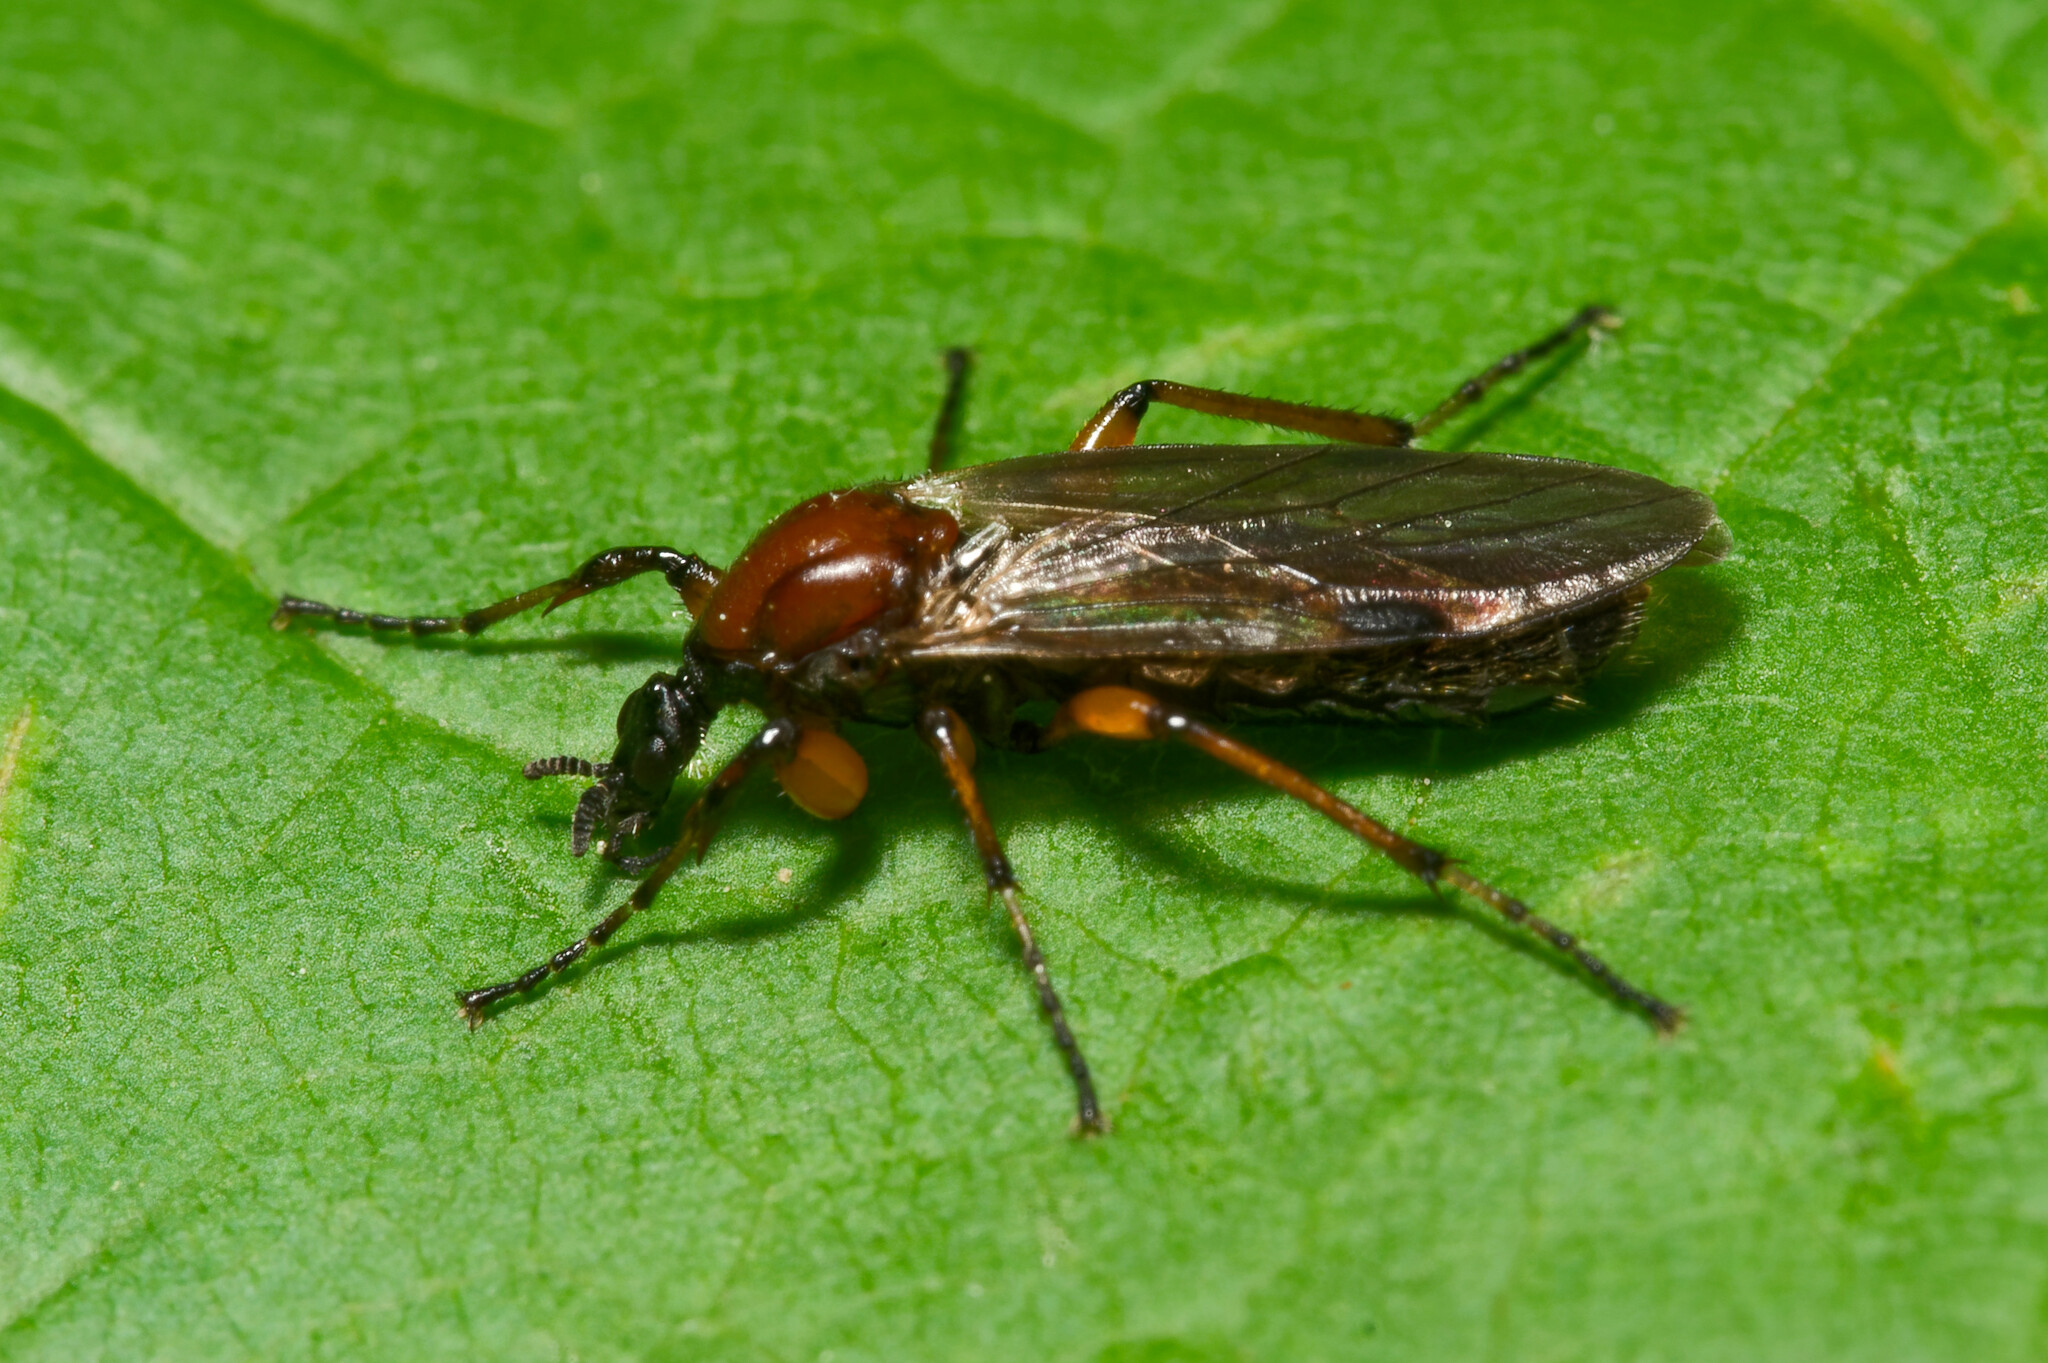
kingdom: Animalia
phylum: Arthropoda
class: Insecta
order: Diptera
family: Bibionidae
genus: Bibio
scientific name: Bibio articulatus
